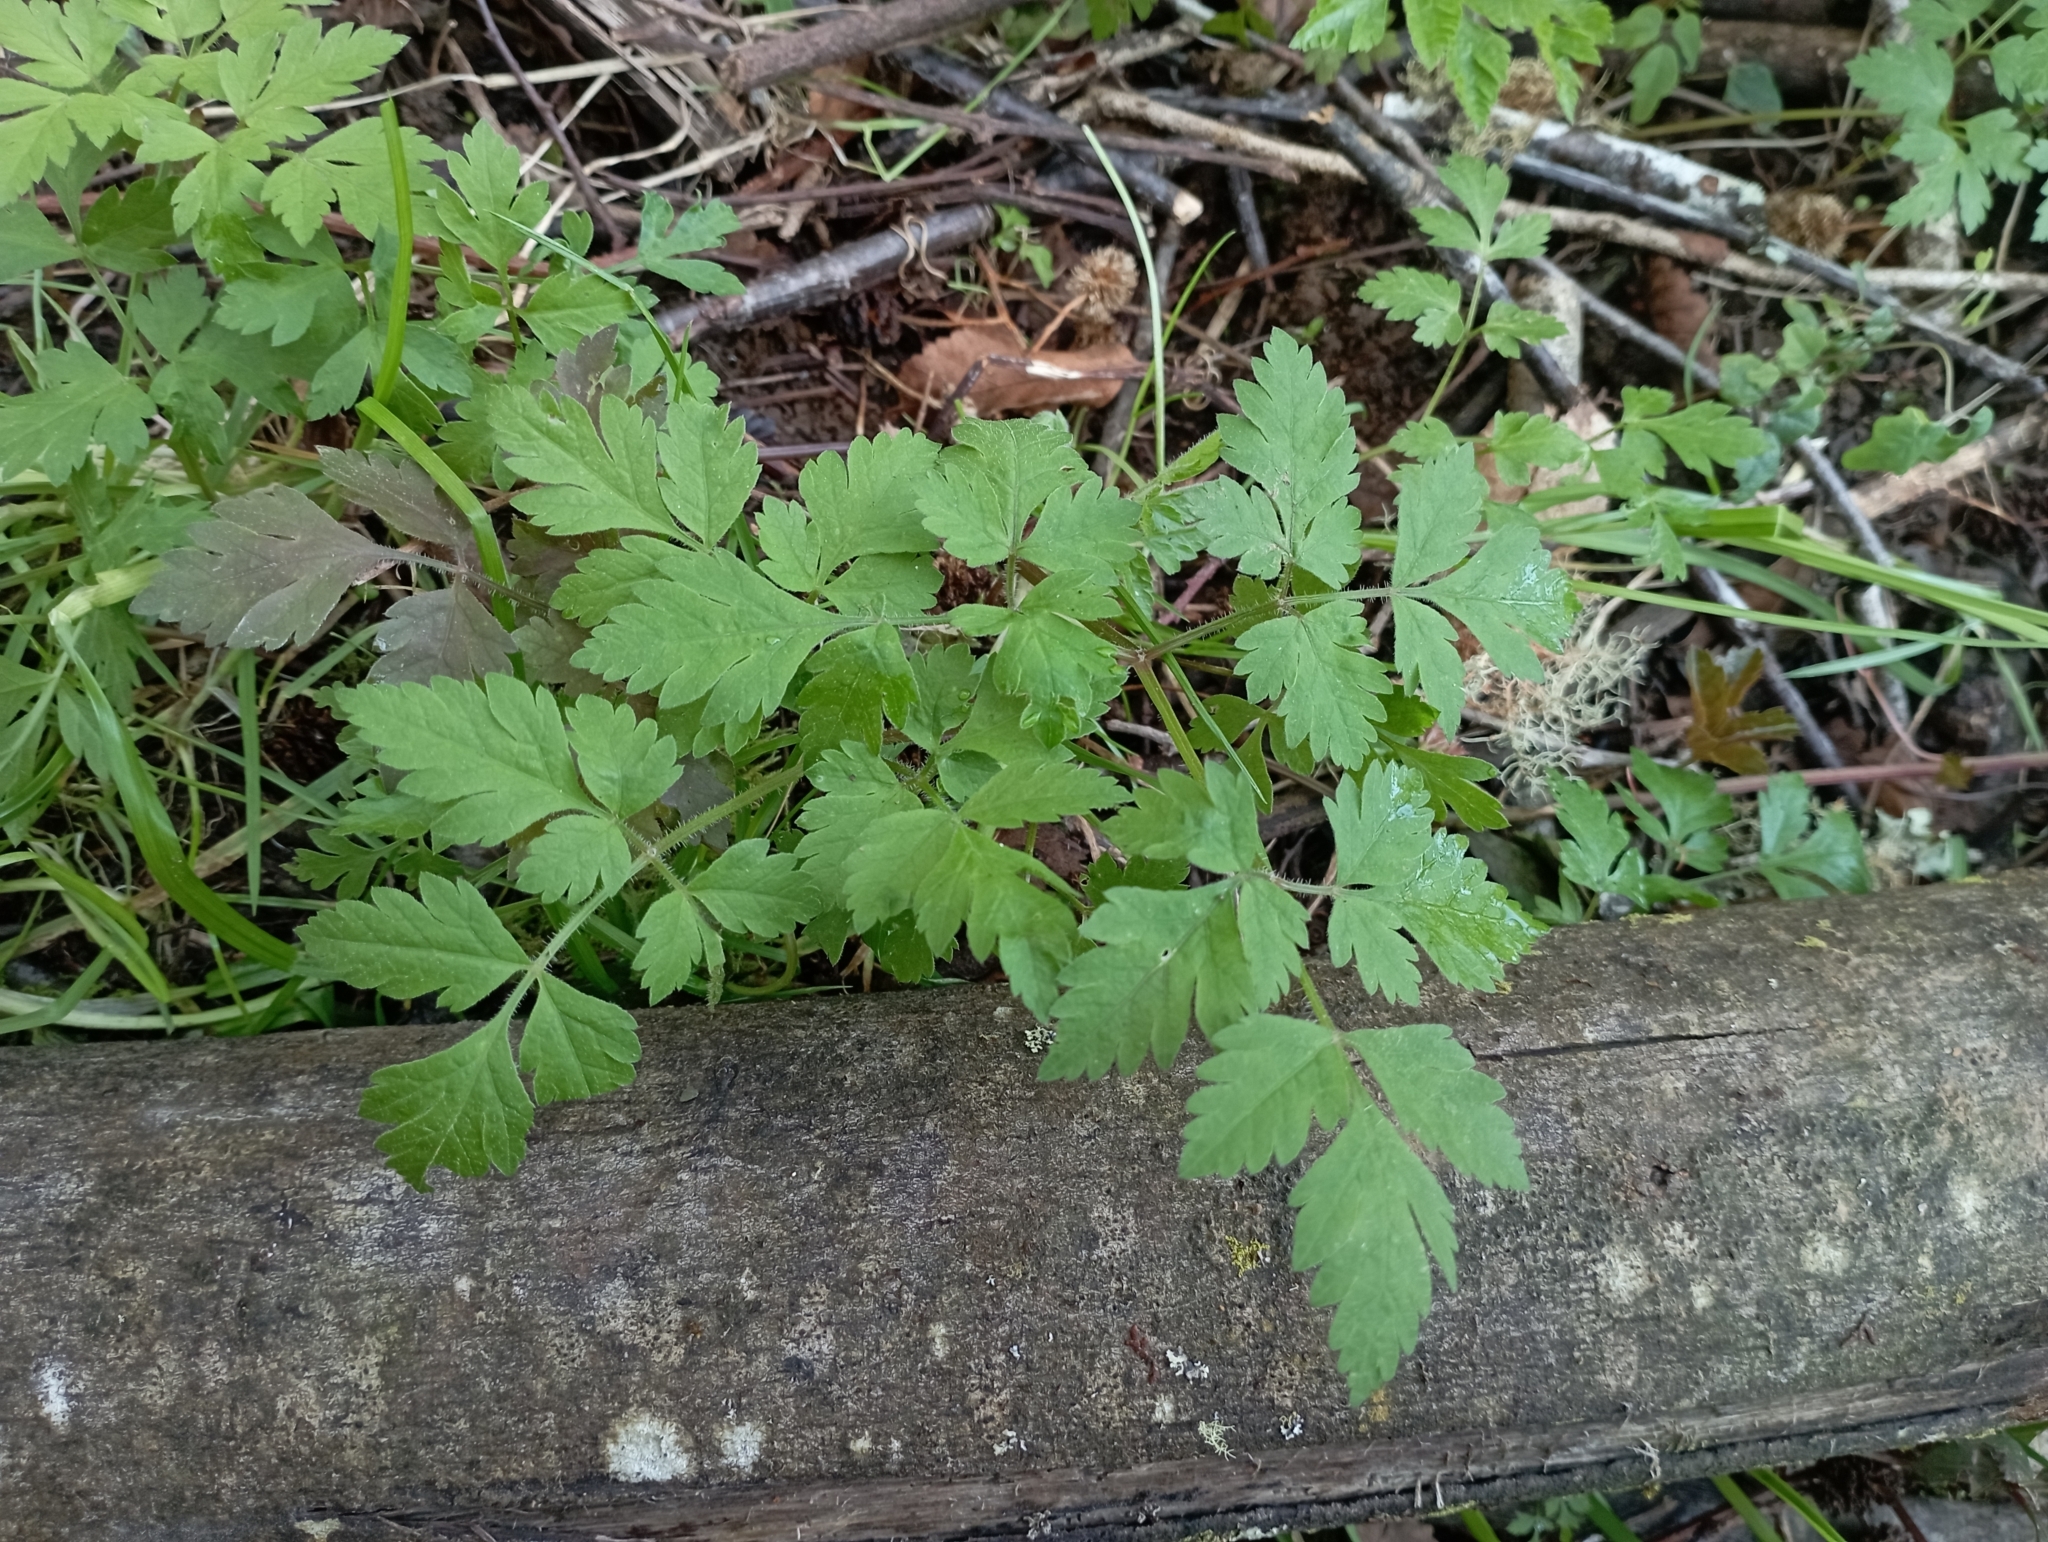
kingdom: Plantae
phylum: Tracheophyta
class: Magnoliopsida
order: Apiales
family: Apiaceae
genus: Osmorhiza
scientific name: Osmorhiza berteroi
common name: Mountain sweet cicely
